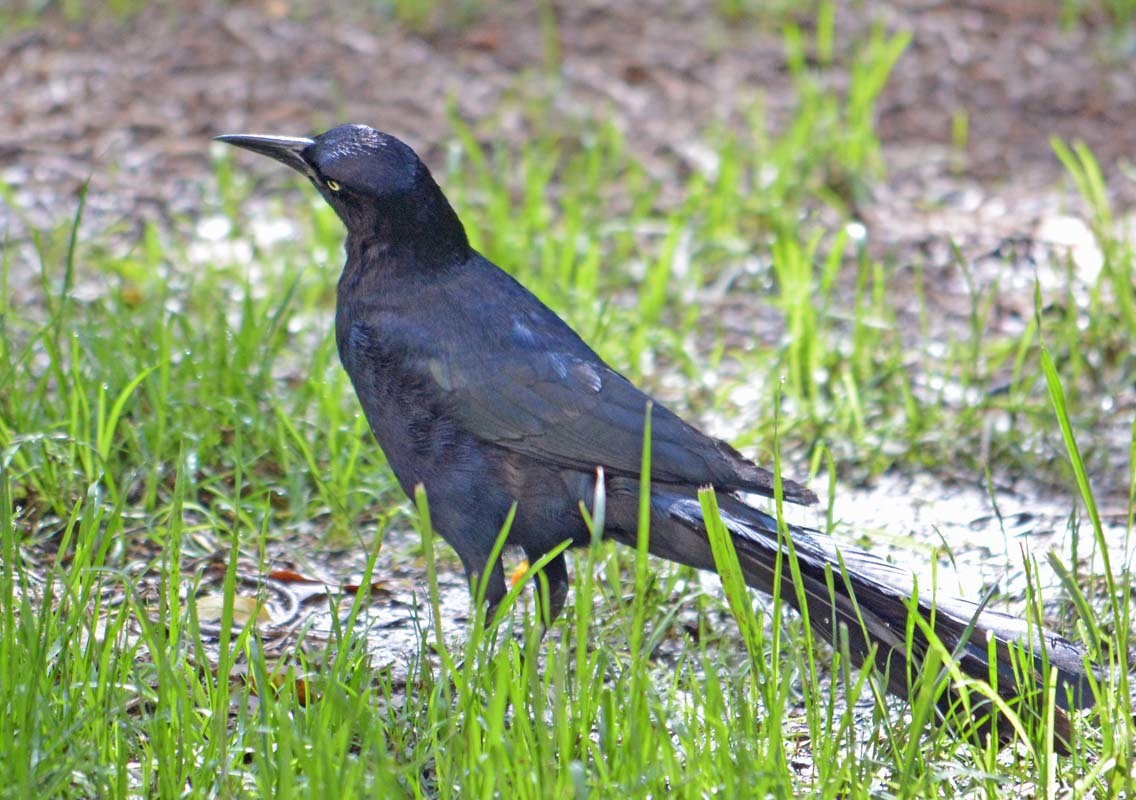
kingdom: Animalia
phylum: Chordata
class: Aves
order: Passeriformes
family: Icteridae
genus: Quiscalus
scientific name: Quiscalus mexicanus
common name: Great-tailed grackle
